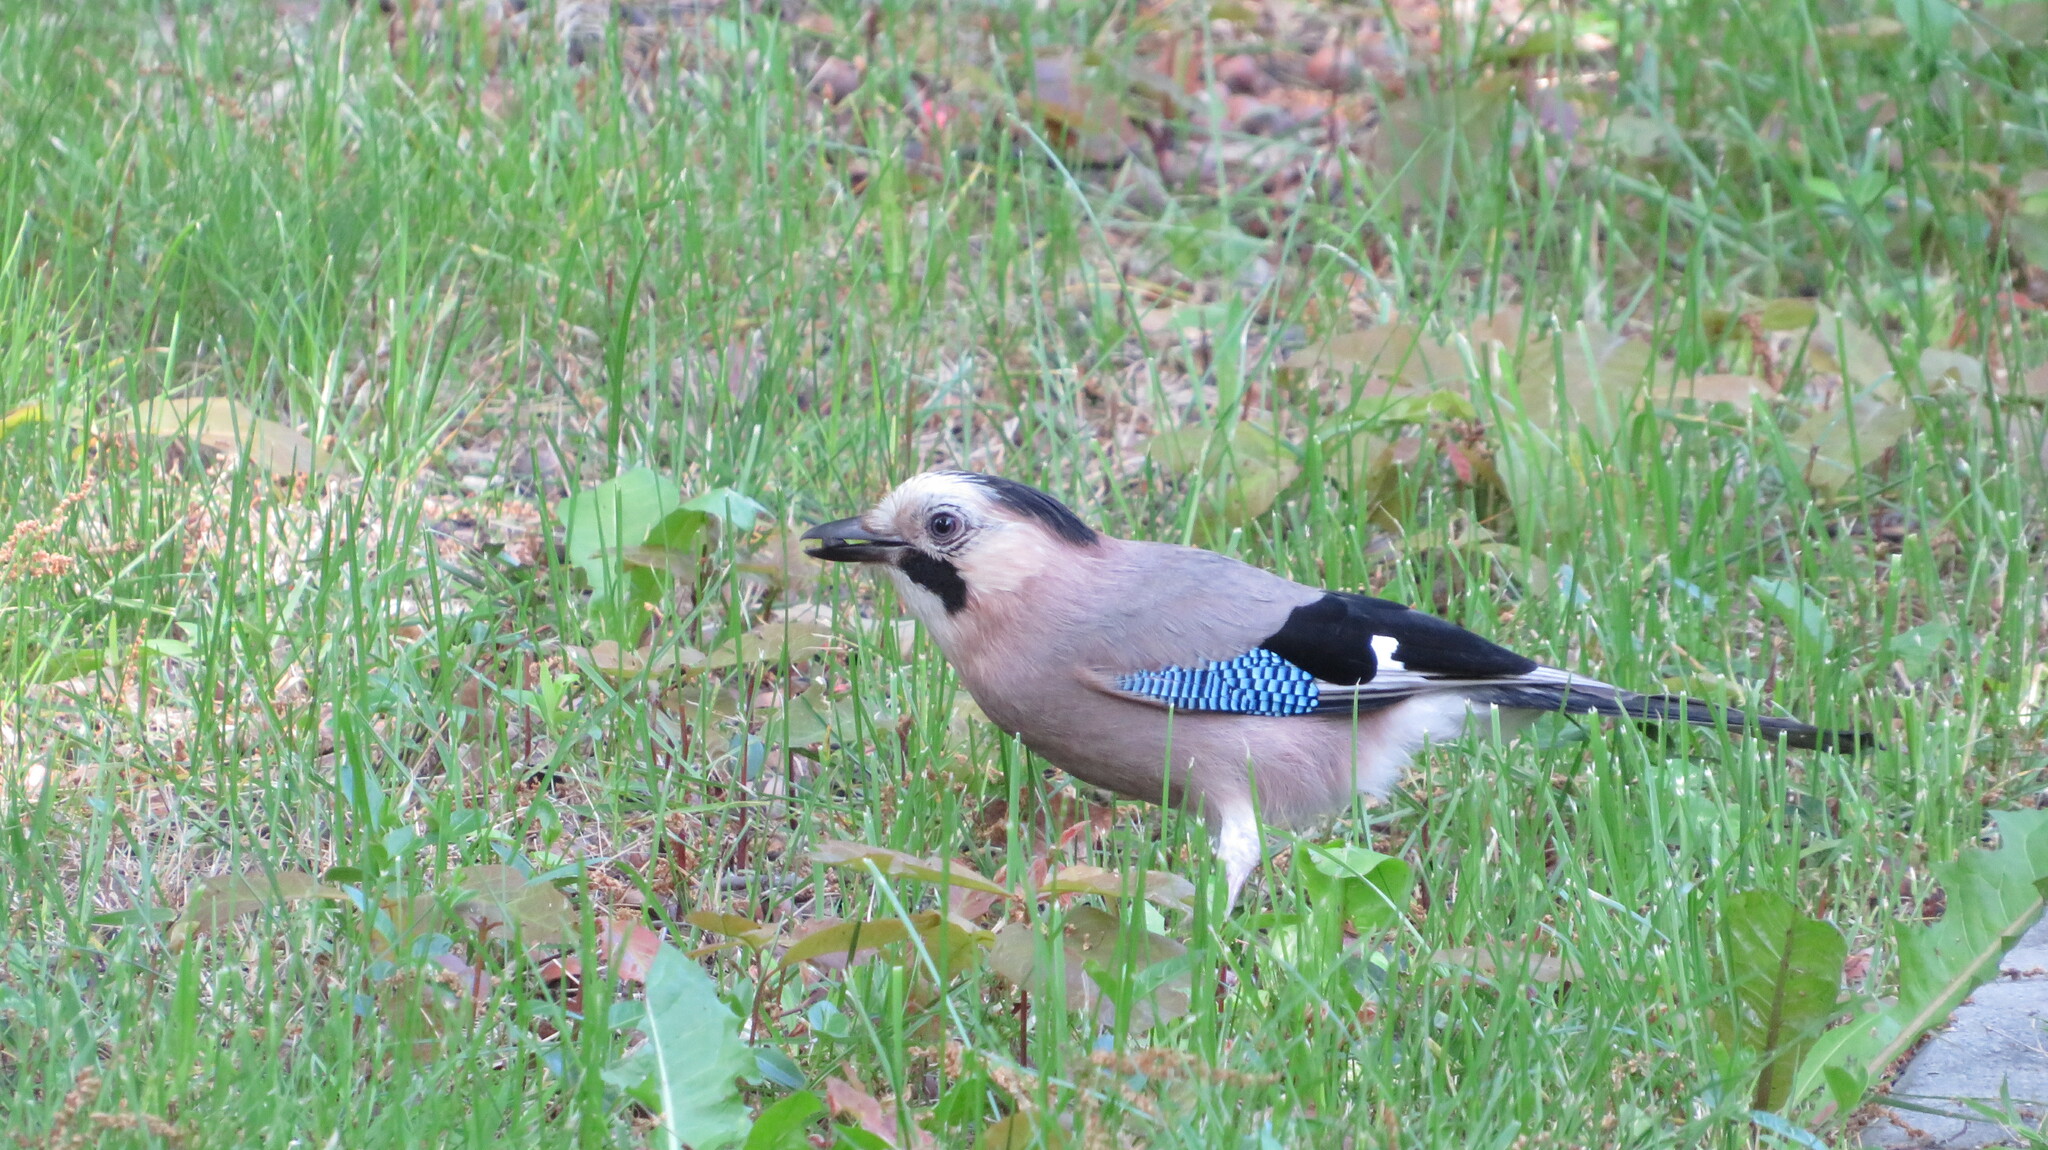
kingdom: Animalia
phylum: Chordata
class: Aves
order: Passeriformes
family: Corvidae
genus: Garrulus
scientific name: Garrulus glandarius
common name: Eurasian jay
